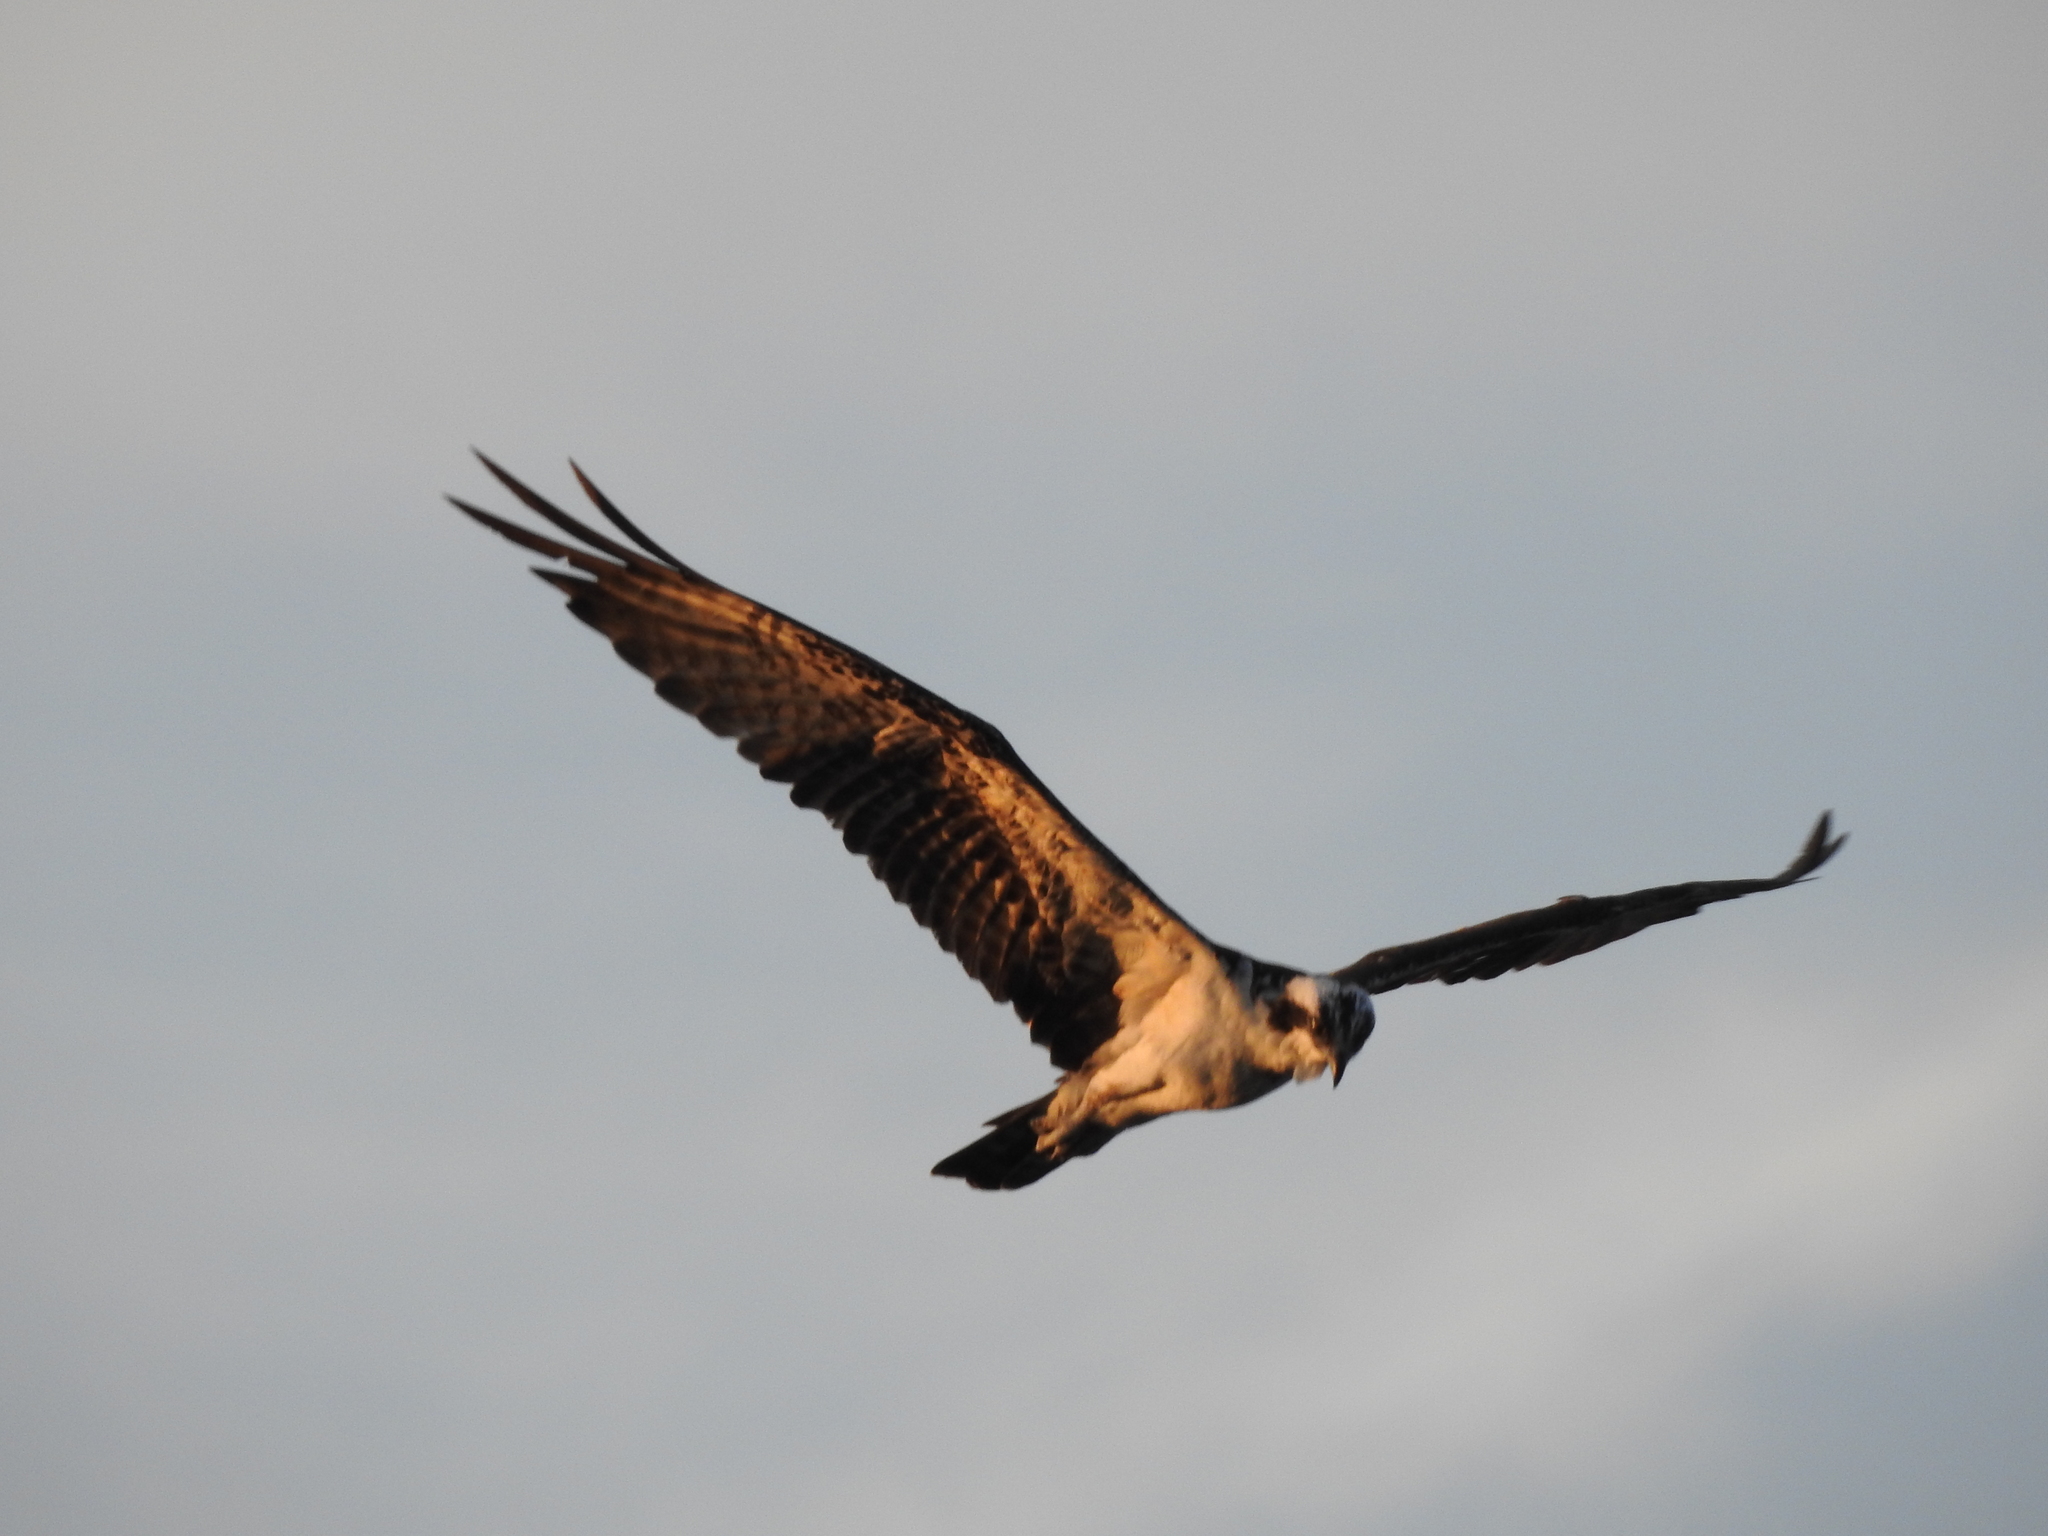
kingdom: Animalia
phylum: Chordata
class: Aves
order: Accipitriformes
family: Pandionidae
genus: Pandion
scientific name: Pandion haliaetus
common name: Osprey
